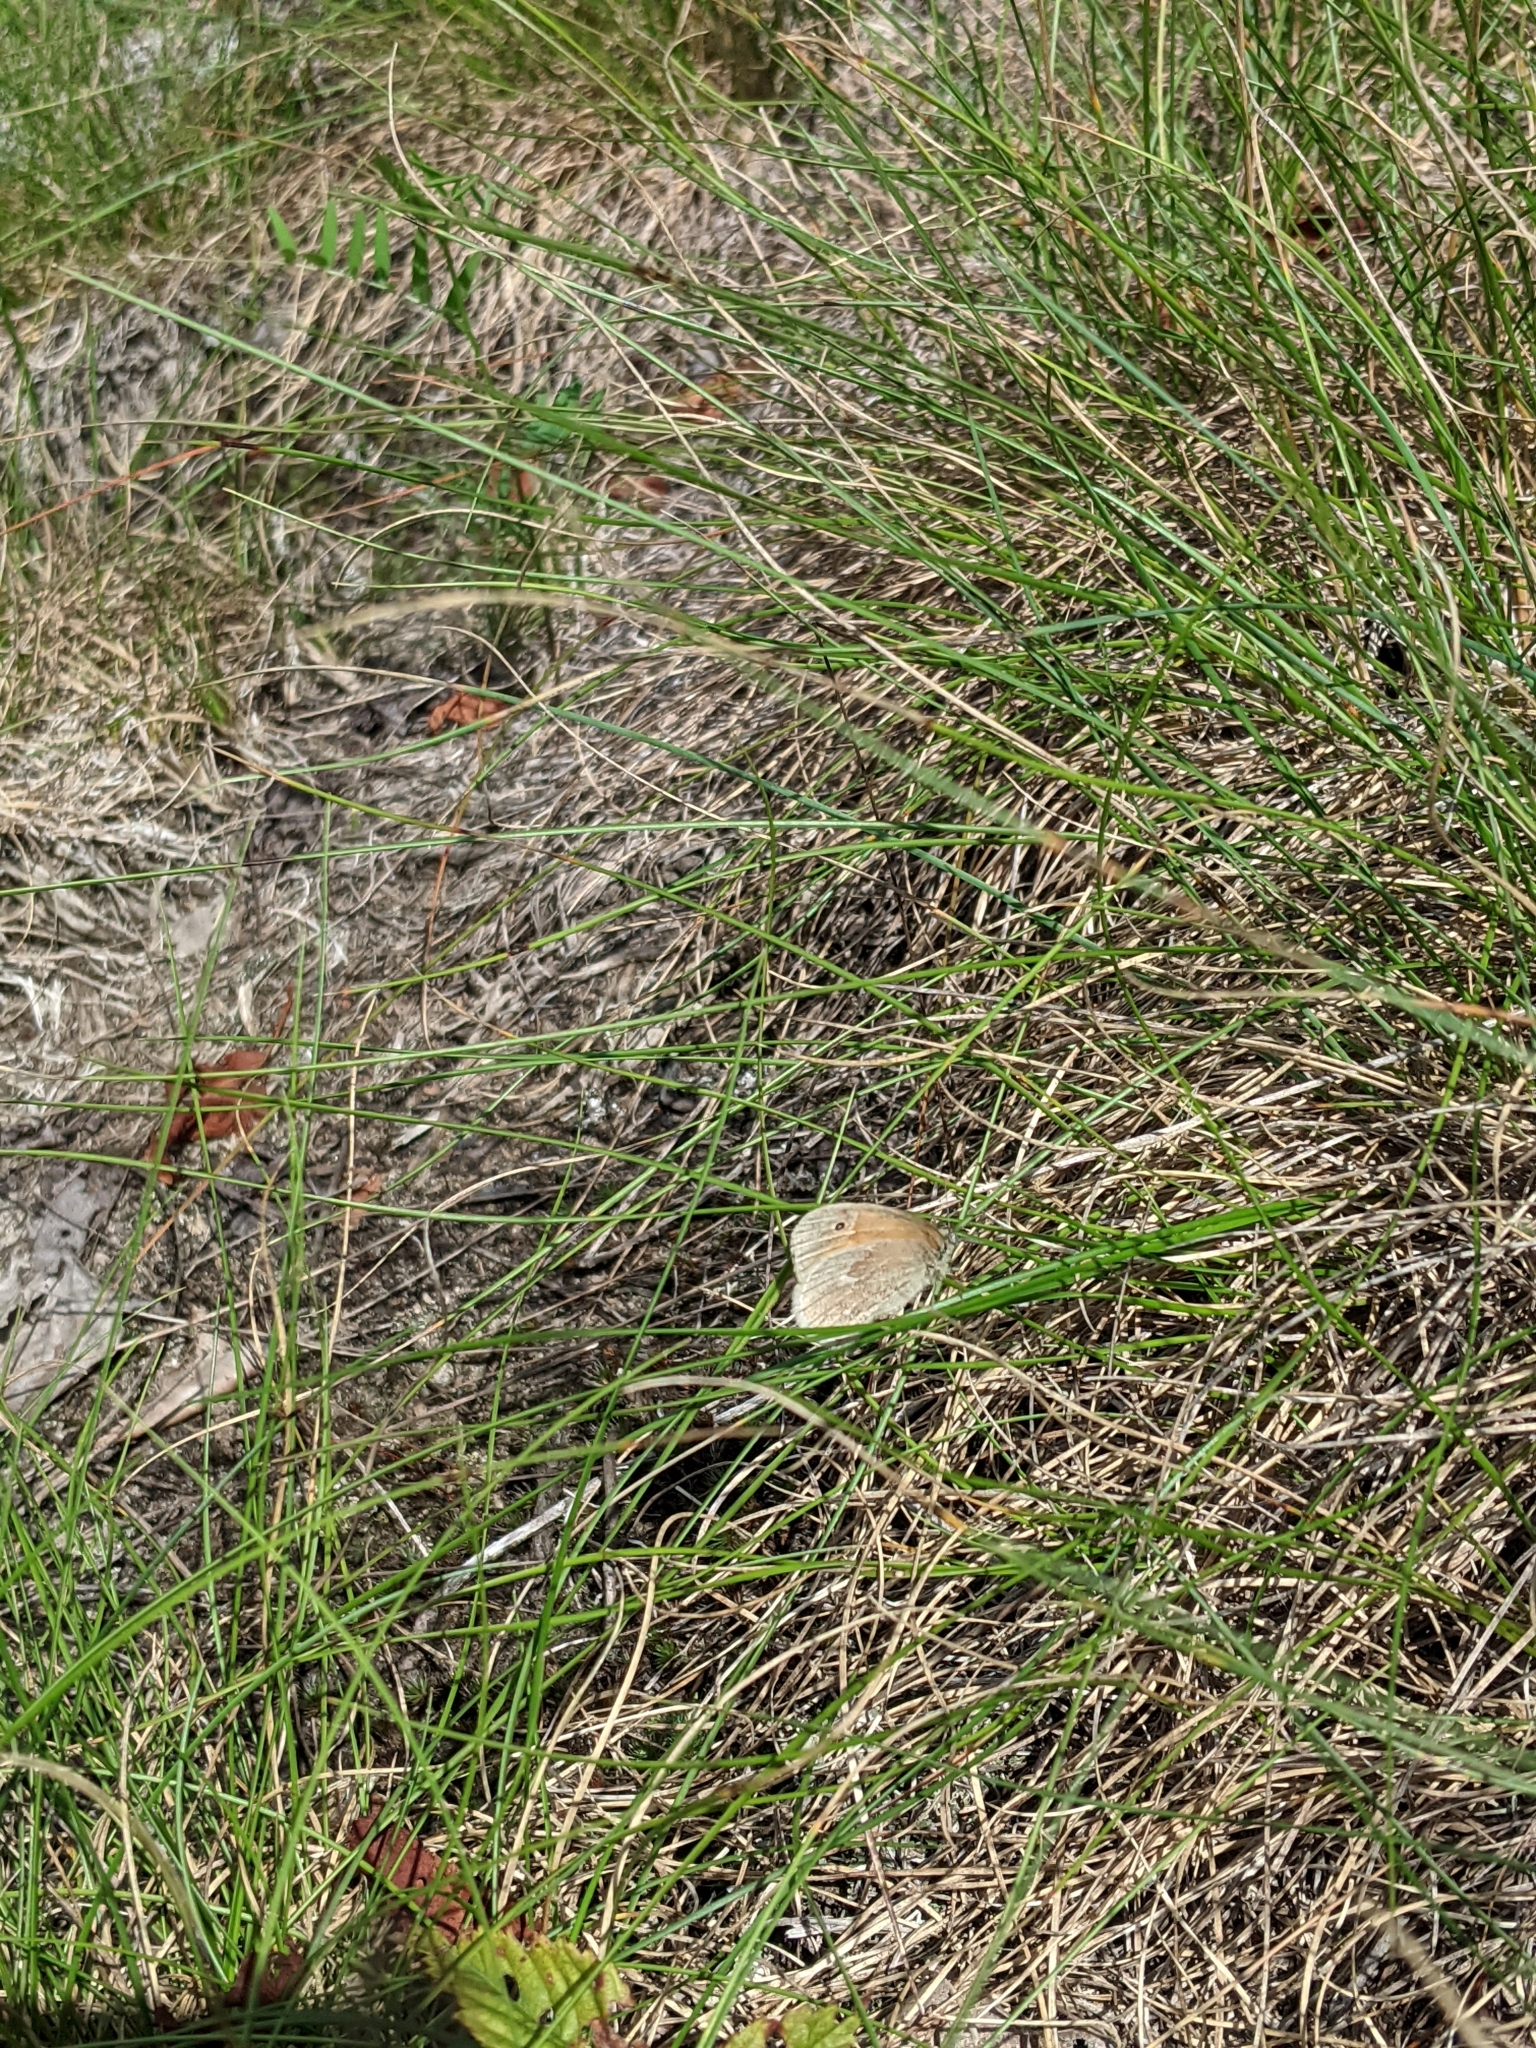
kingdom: Animalia
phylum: Arthropoda
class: Insecta
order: Lepidoptera
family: Nymphalidae
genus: Coenonympha
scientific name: Coenonympha california
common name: Common ringlet
